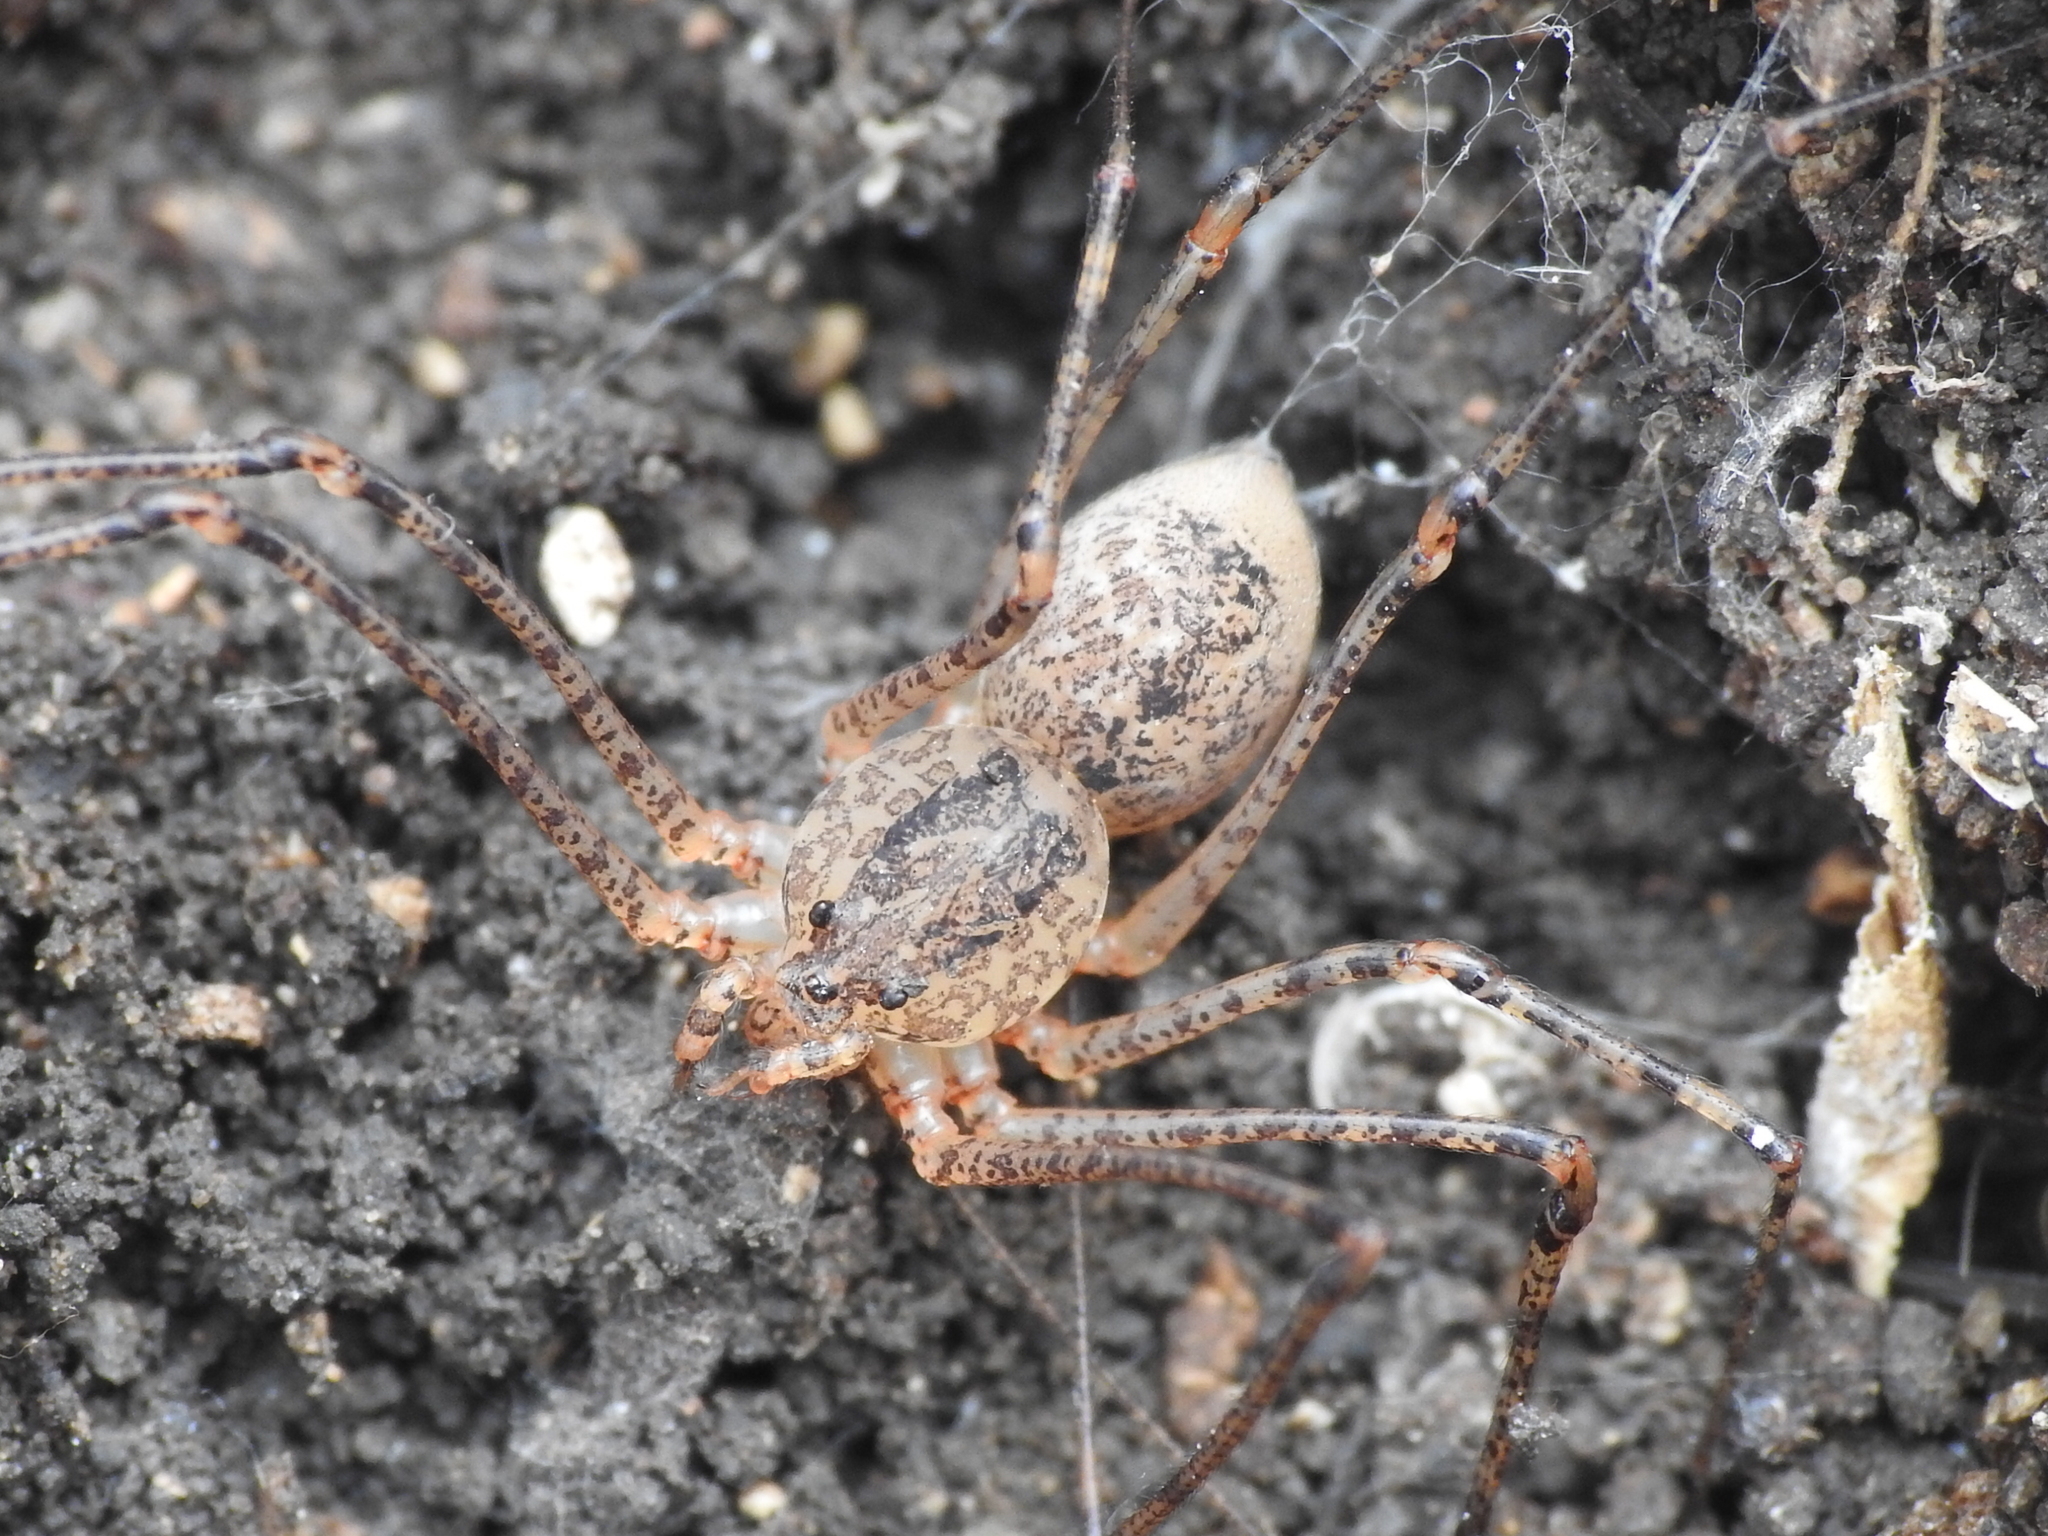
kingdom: Animalia
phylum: Arthropoda
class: Arachnida
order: Araneae
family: Scytodidae
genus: Scytodes
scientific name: Scytodes atlacoya
